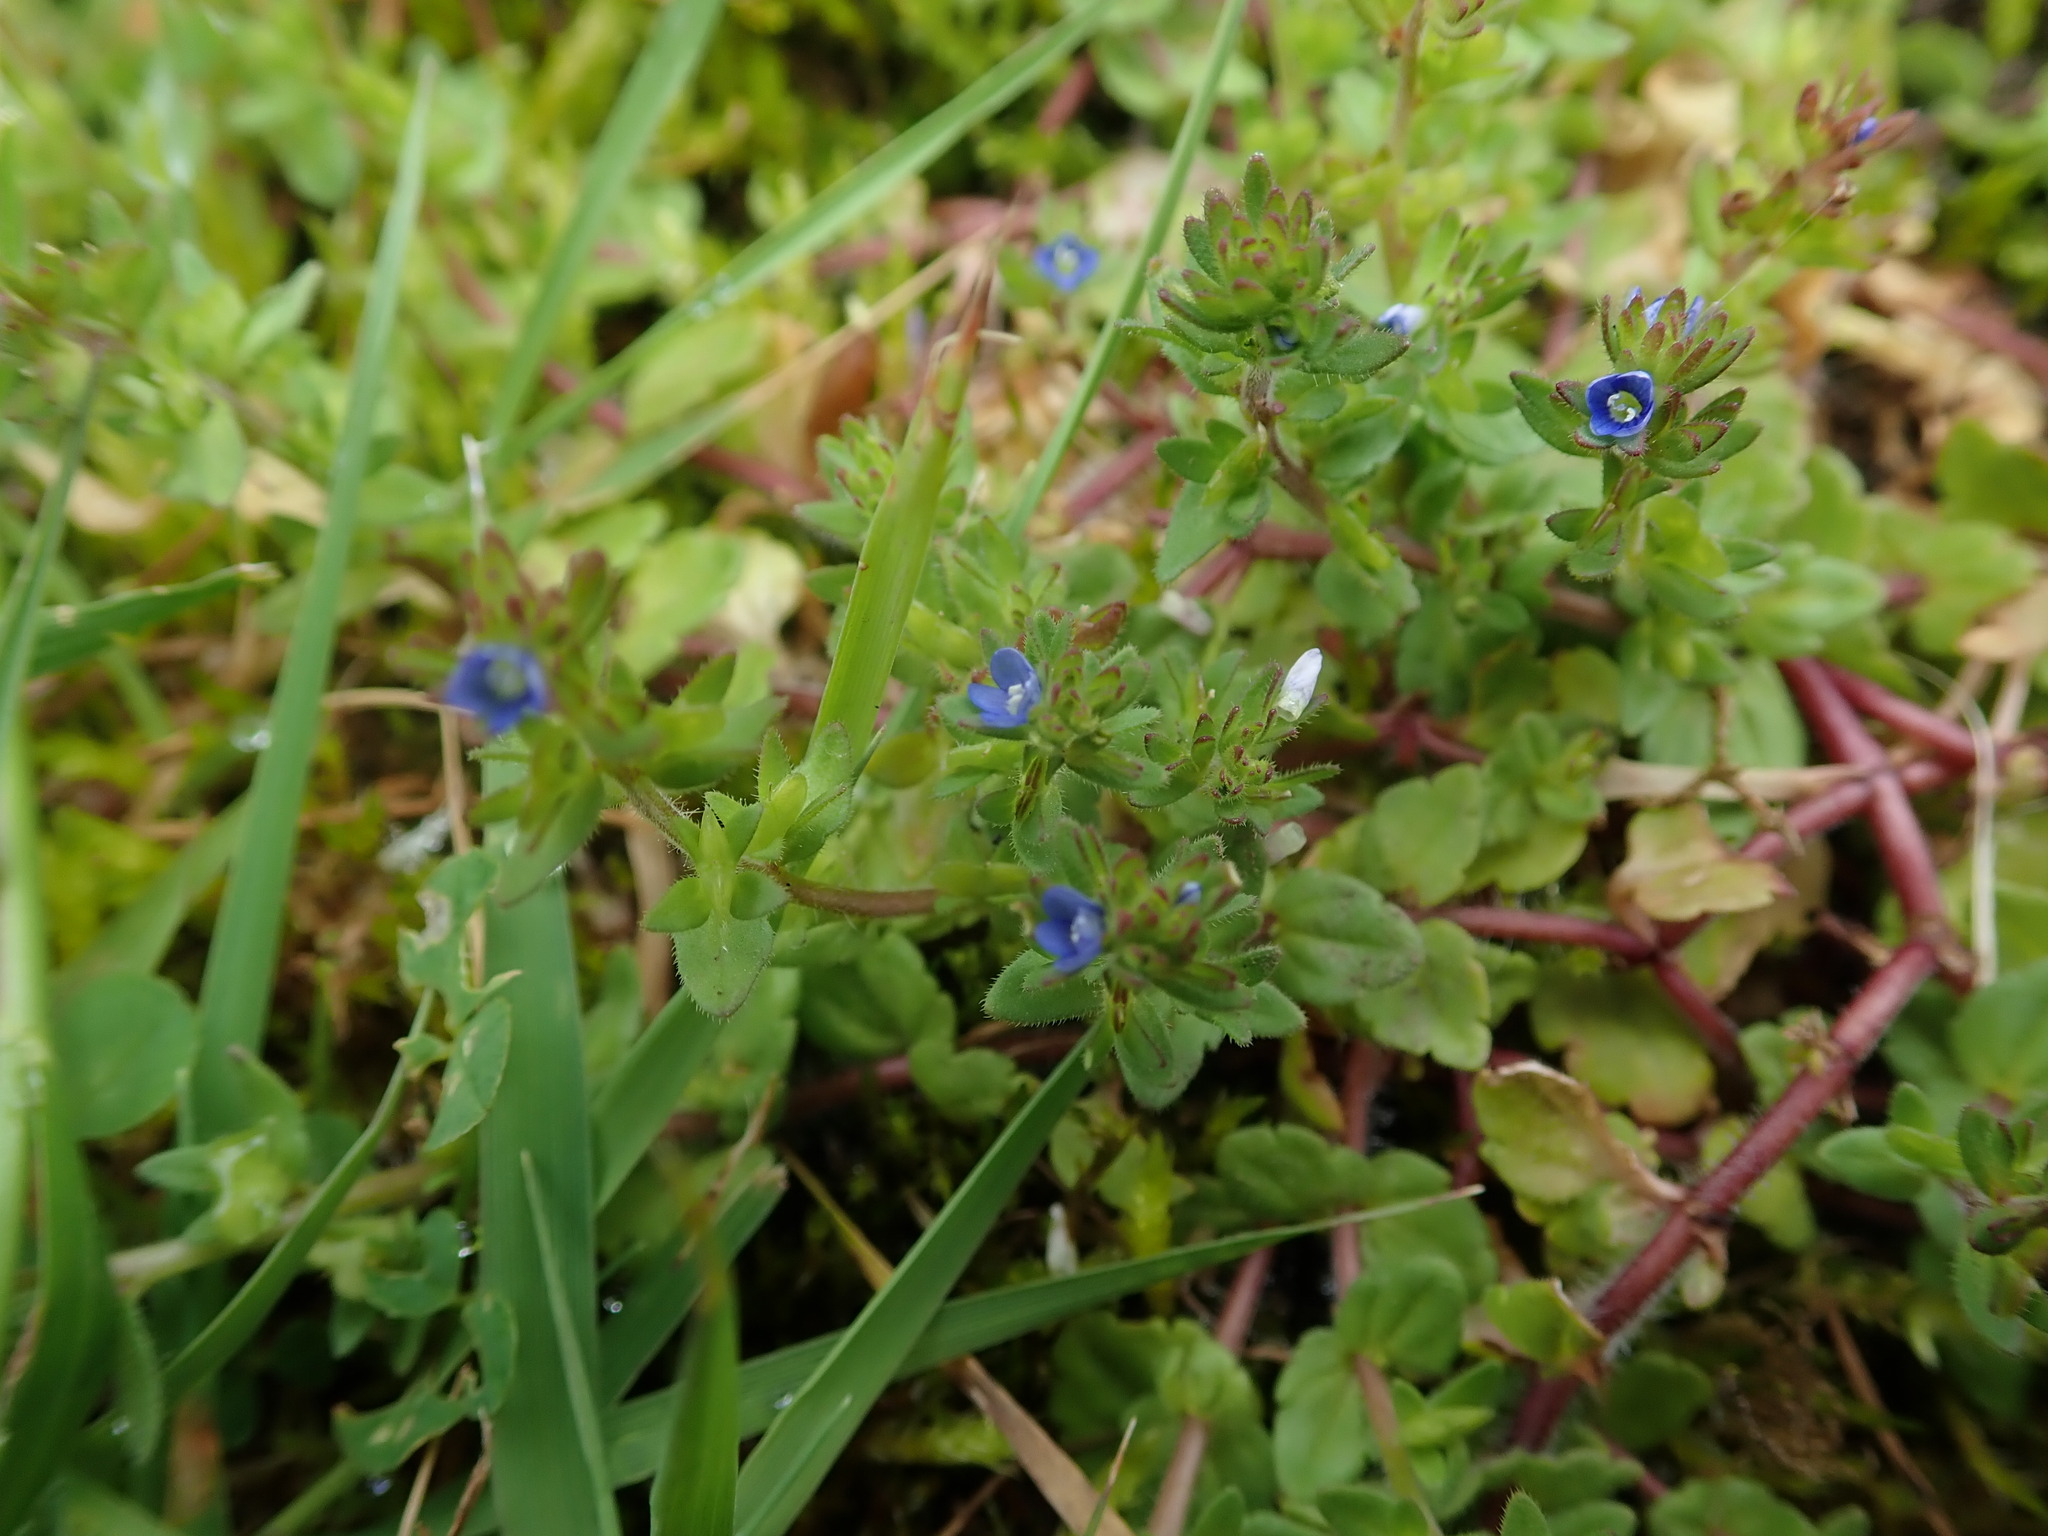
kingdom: Plantae
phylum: Tracheophyta
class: Magnoliopsida
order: Lamiales
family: Plantaginaceae
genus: Veronica
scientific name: Veronica arvensis
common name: Corn speedwell
